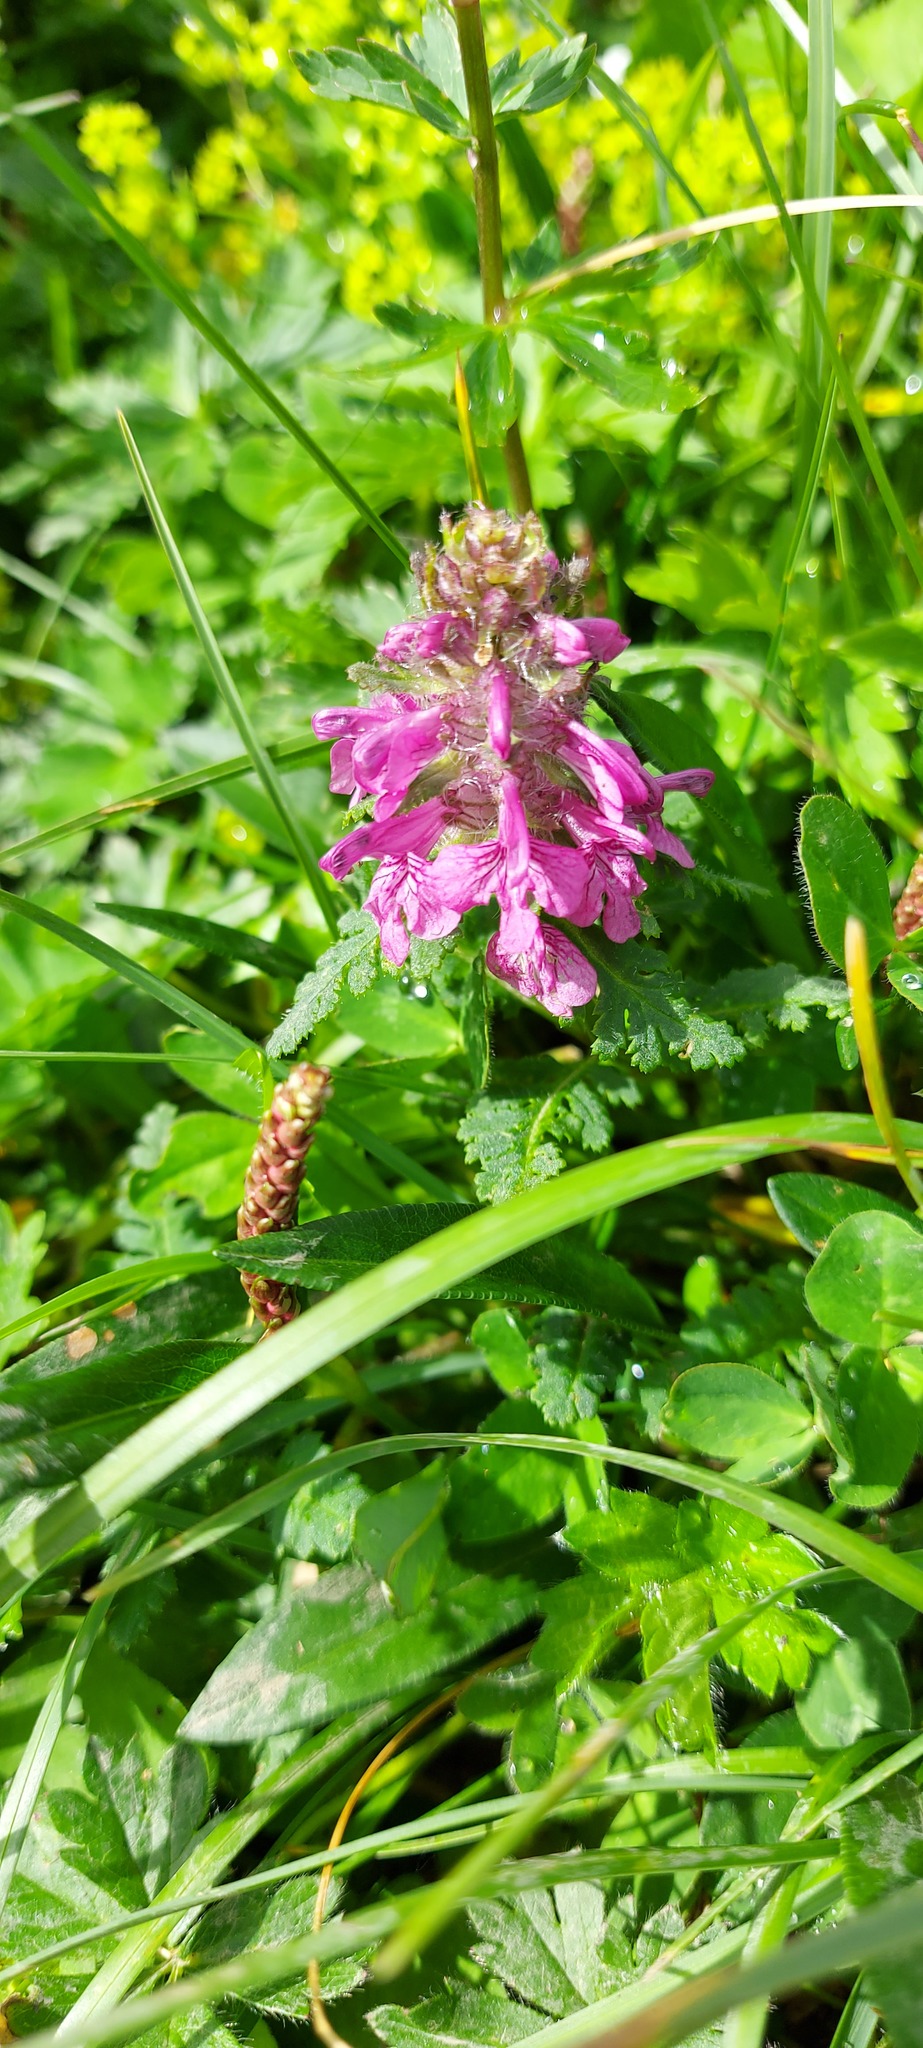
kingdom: Plantae
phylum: Tracheophyta
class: Magnoliopsida
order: Lamiales
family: Orobanchaceae
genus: Pedicularis
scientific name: Pedicularis verticillata
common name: Whorled lousewort
